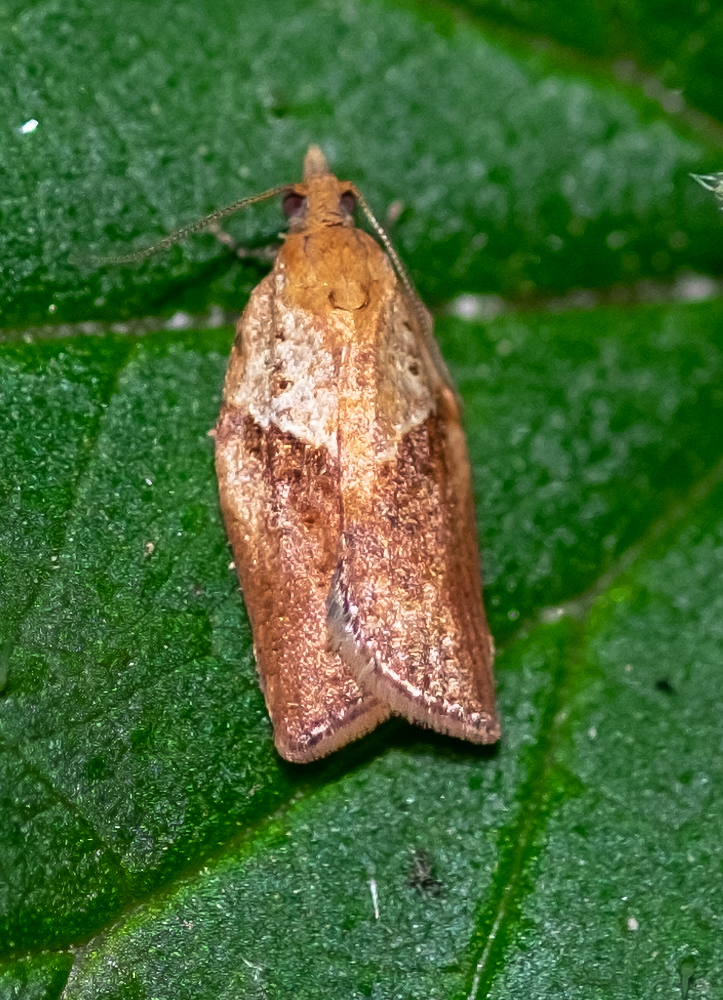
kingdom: Animalia
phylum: Arthropoda
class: Insecta
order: Lepidoptera
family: Tortricidae
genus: Epiphyas
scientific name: Epiphyas postvittana
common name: Light brown apple moth
